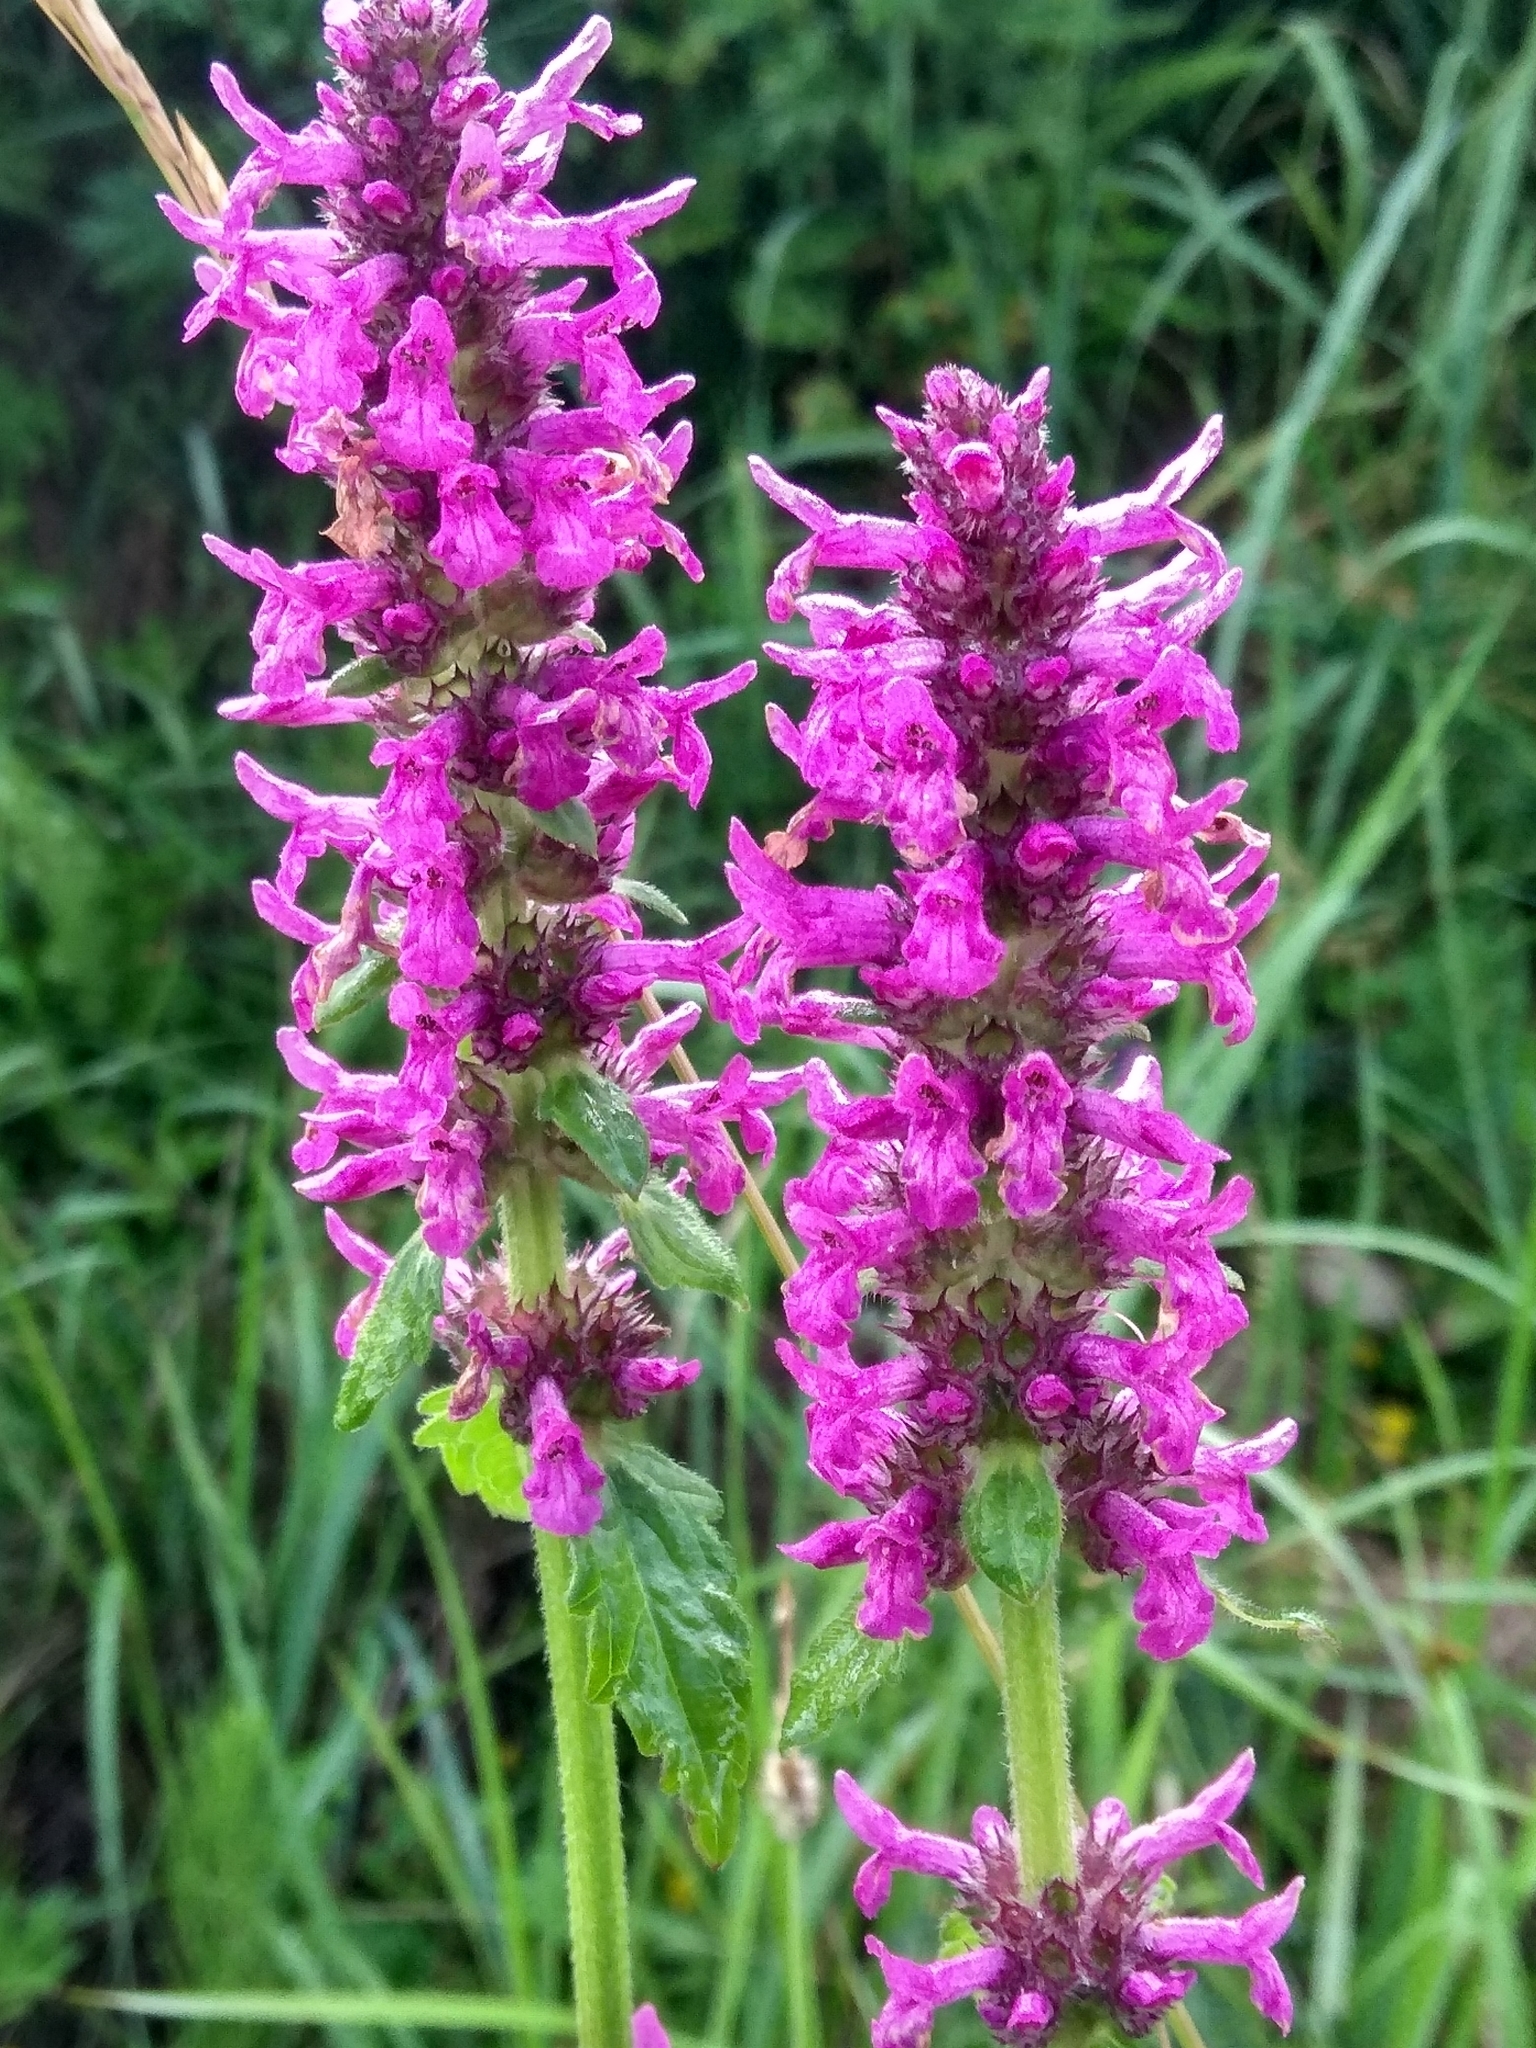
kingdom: Plantae
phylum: Tracheophyta
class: Magnoliopsida
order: Lamiales
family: Lamiaceae
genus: Betonica
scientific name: Betonica officinalis
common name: Bishop's-wort
